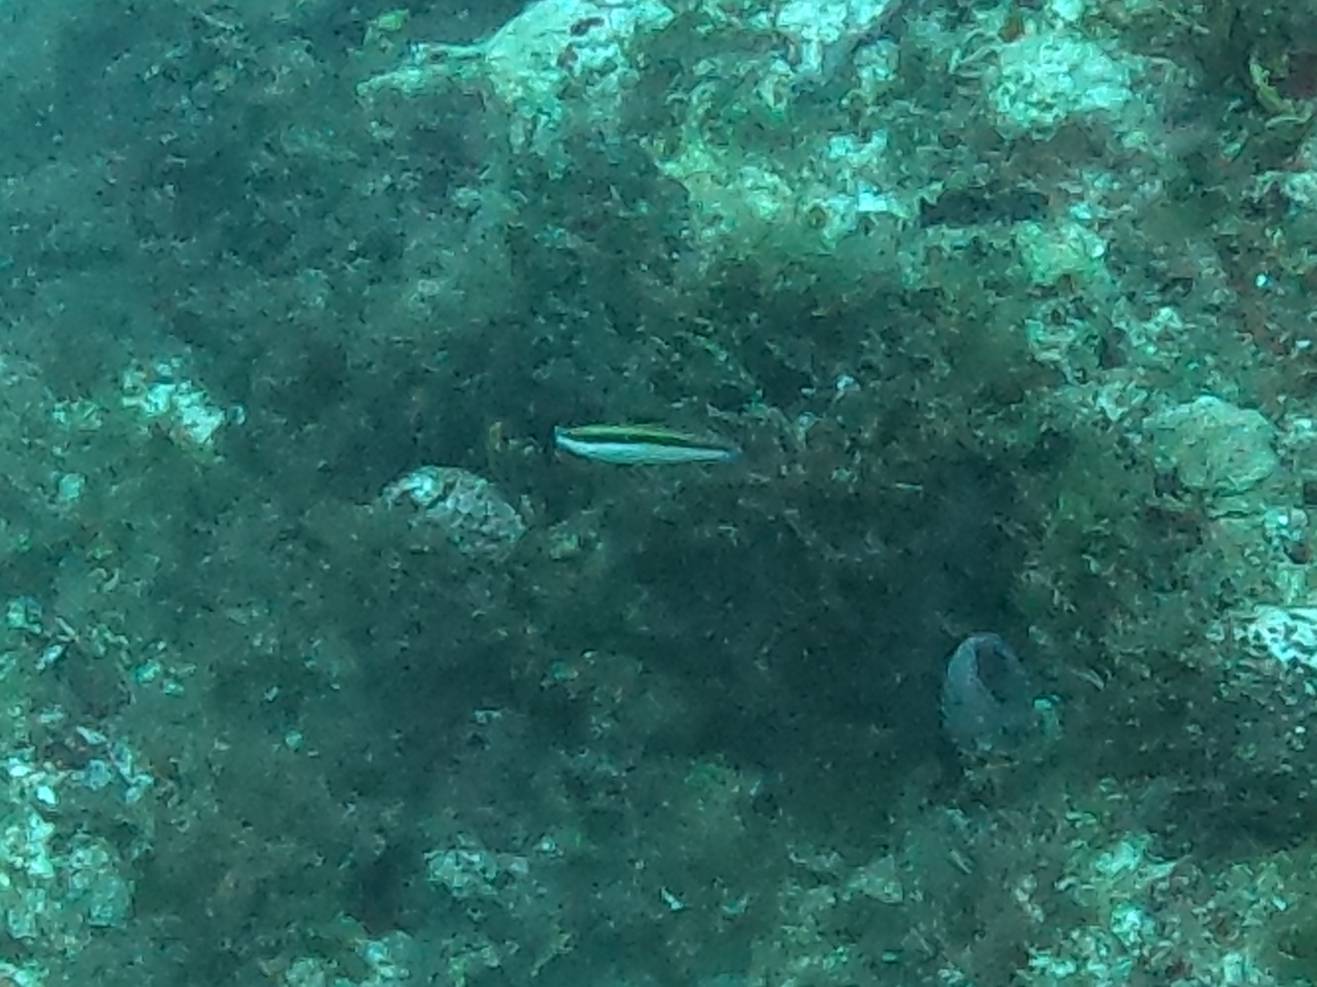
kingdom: Animalia
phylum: Chordata
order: Perciformes
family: Labridae
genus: Thalassoma
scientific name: Thalassoma bifasciatum
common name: Bluehead wrasse
